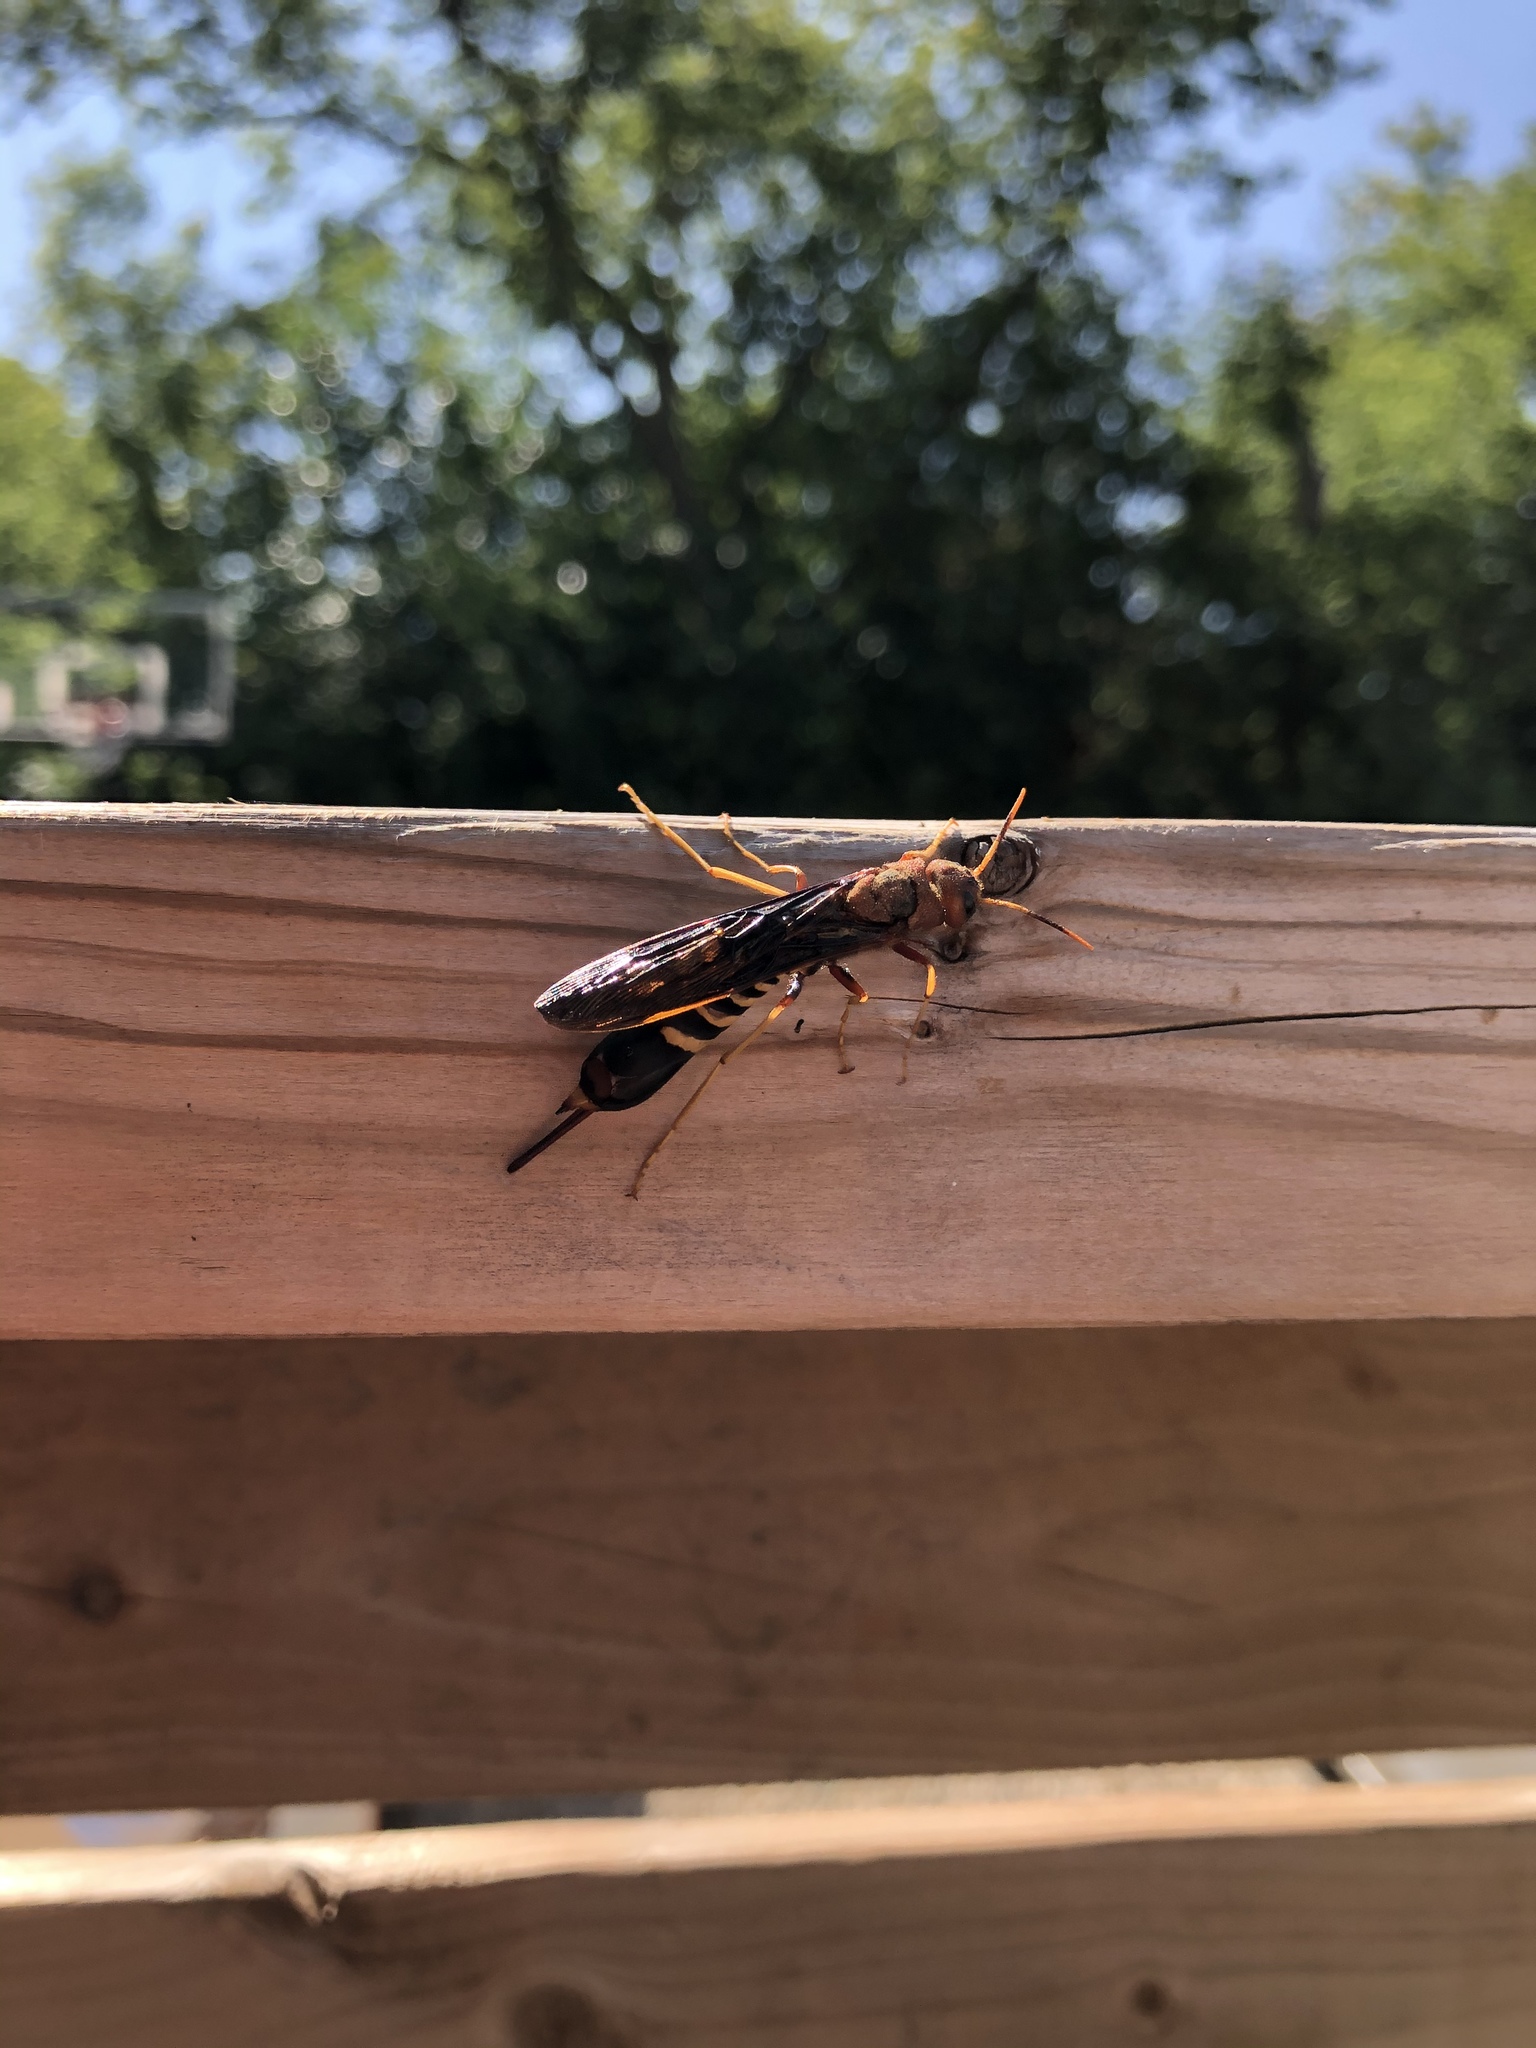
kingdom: Animalia
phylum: Arthropoda
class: Insecta
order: Hymenoptera
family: Siricidae
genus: Tremex
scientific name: Tremex columba
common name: Wasp
